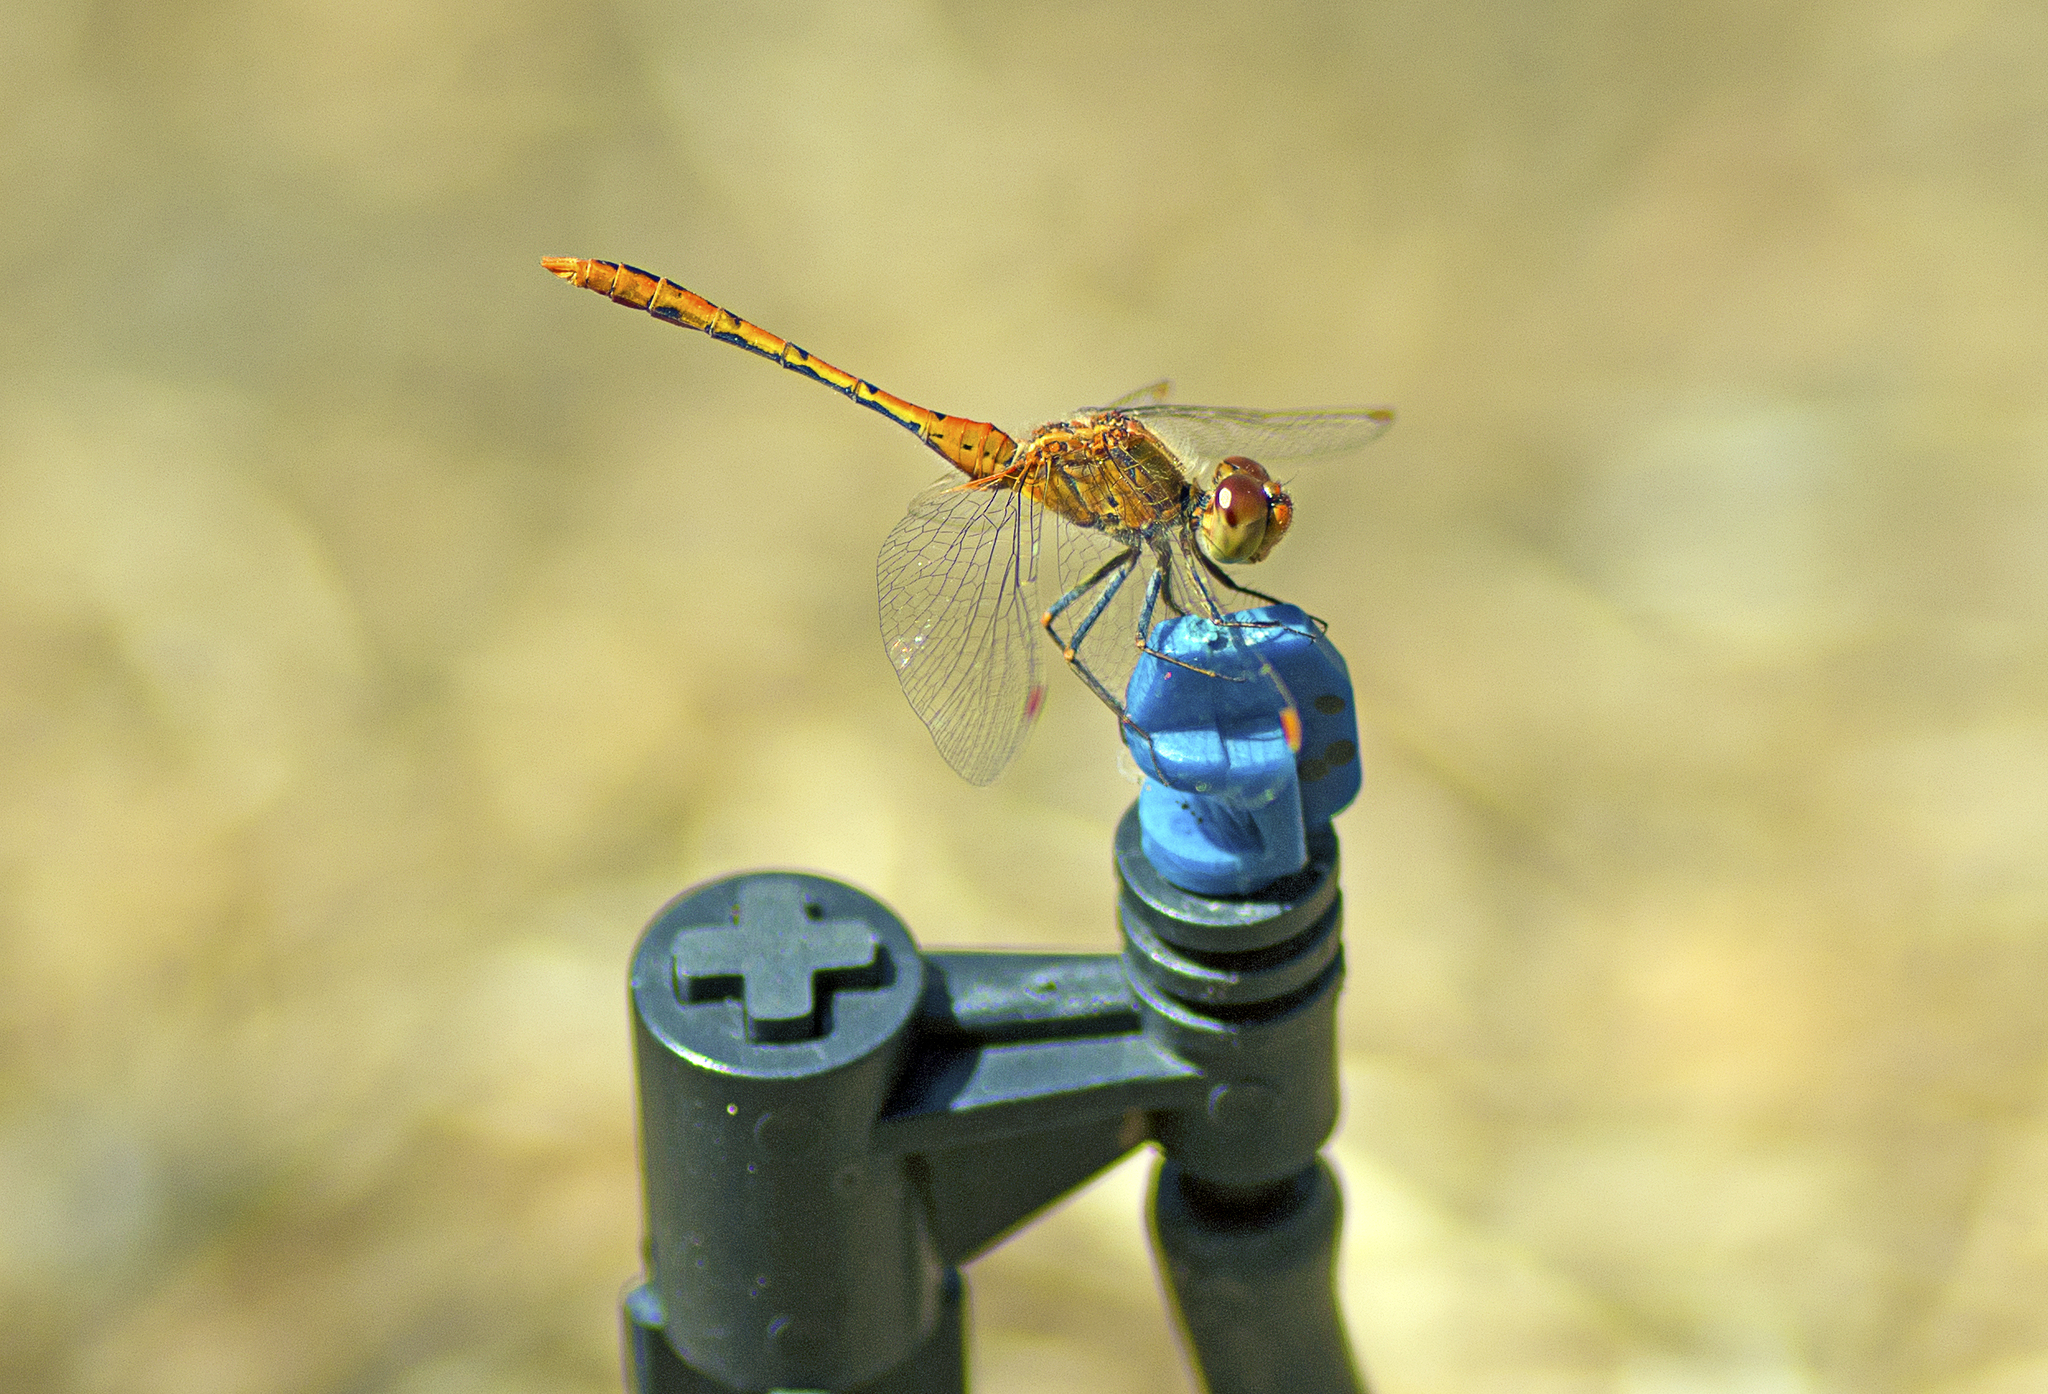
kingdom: Animalia
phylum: Arthropoda
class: Insecta
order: Odonata
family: Libellulidae
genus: Diplacodes
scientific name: Diplacodes bipunctata
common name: Red percher dragonfly
